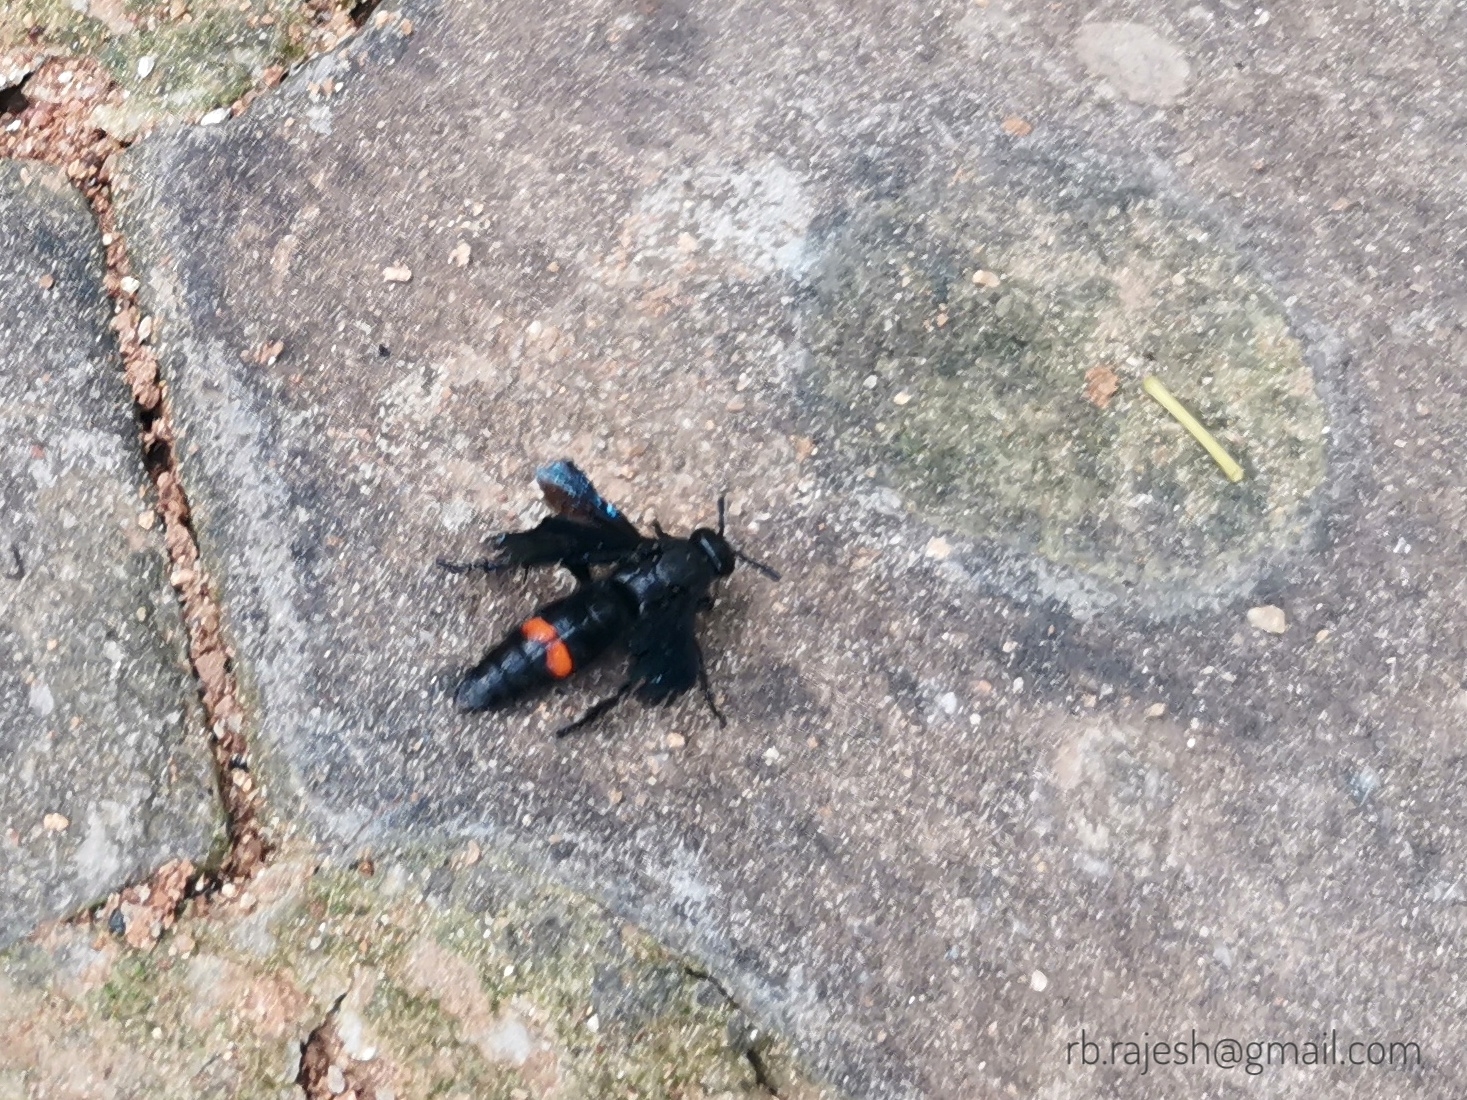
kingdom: Animalia
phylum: Arthropoda
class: Insecta
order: Hymenoptera
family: Scoliidae
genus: Scolia
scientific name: Scolia
